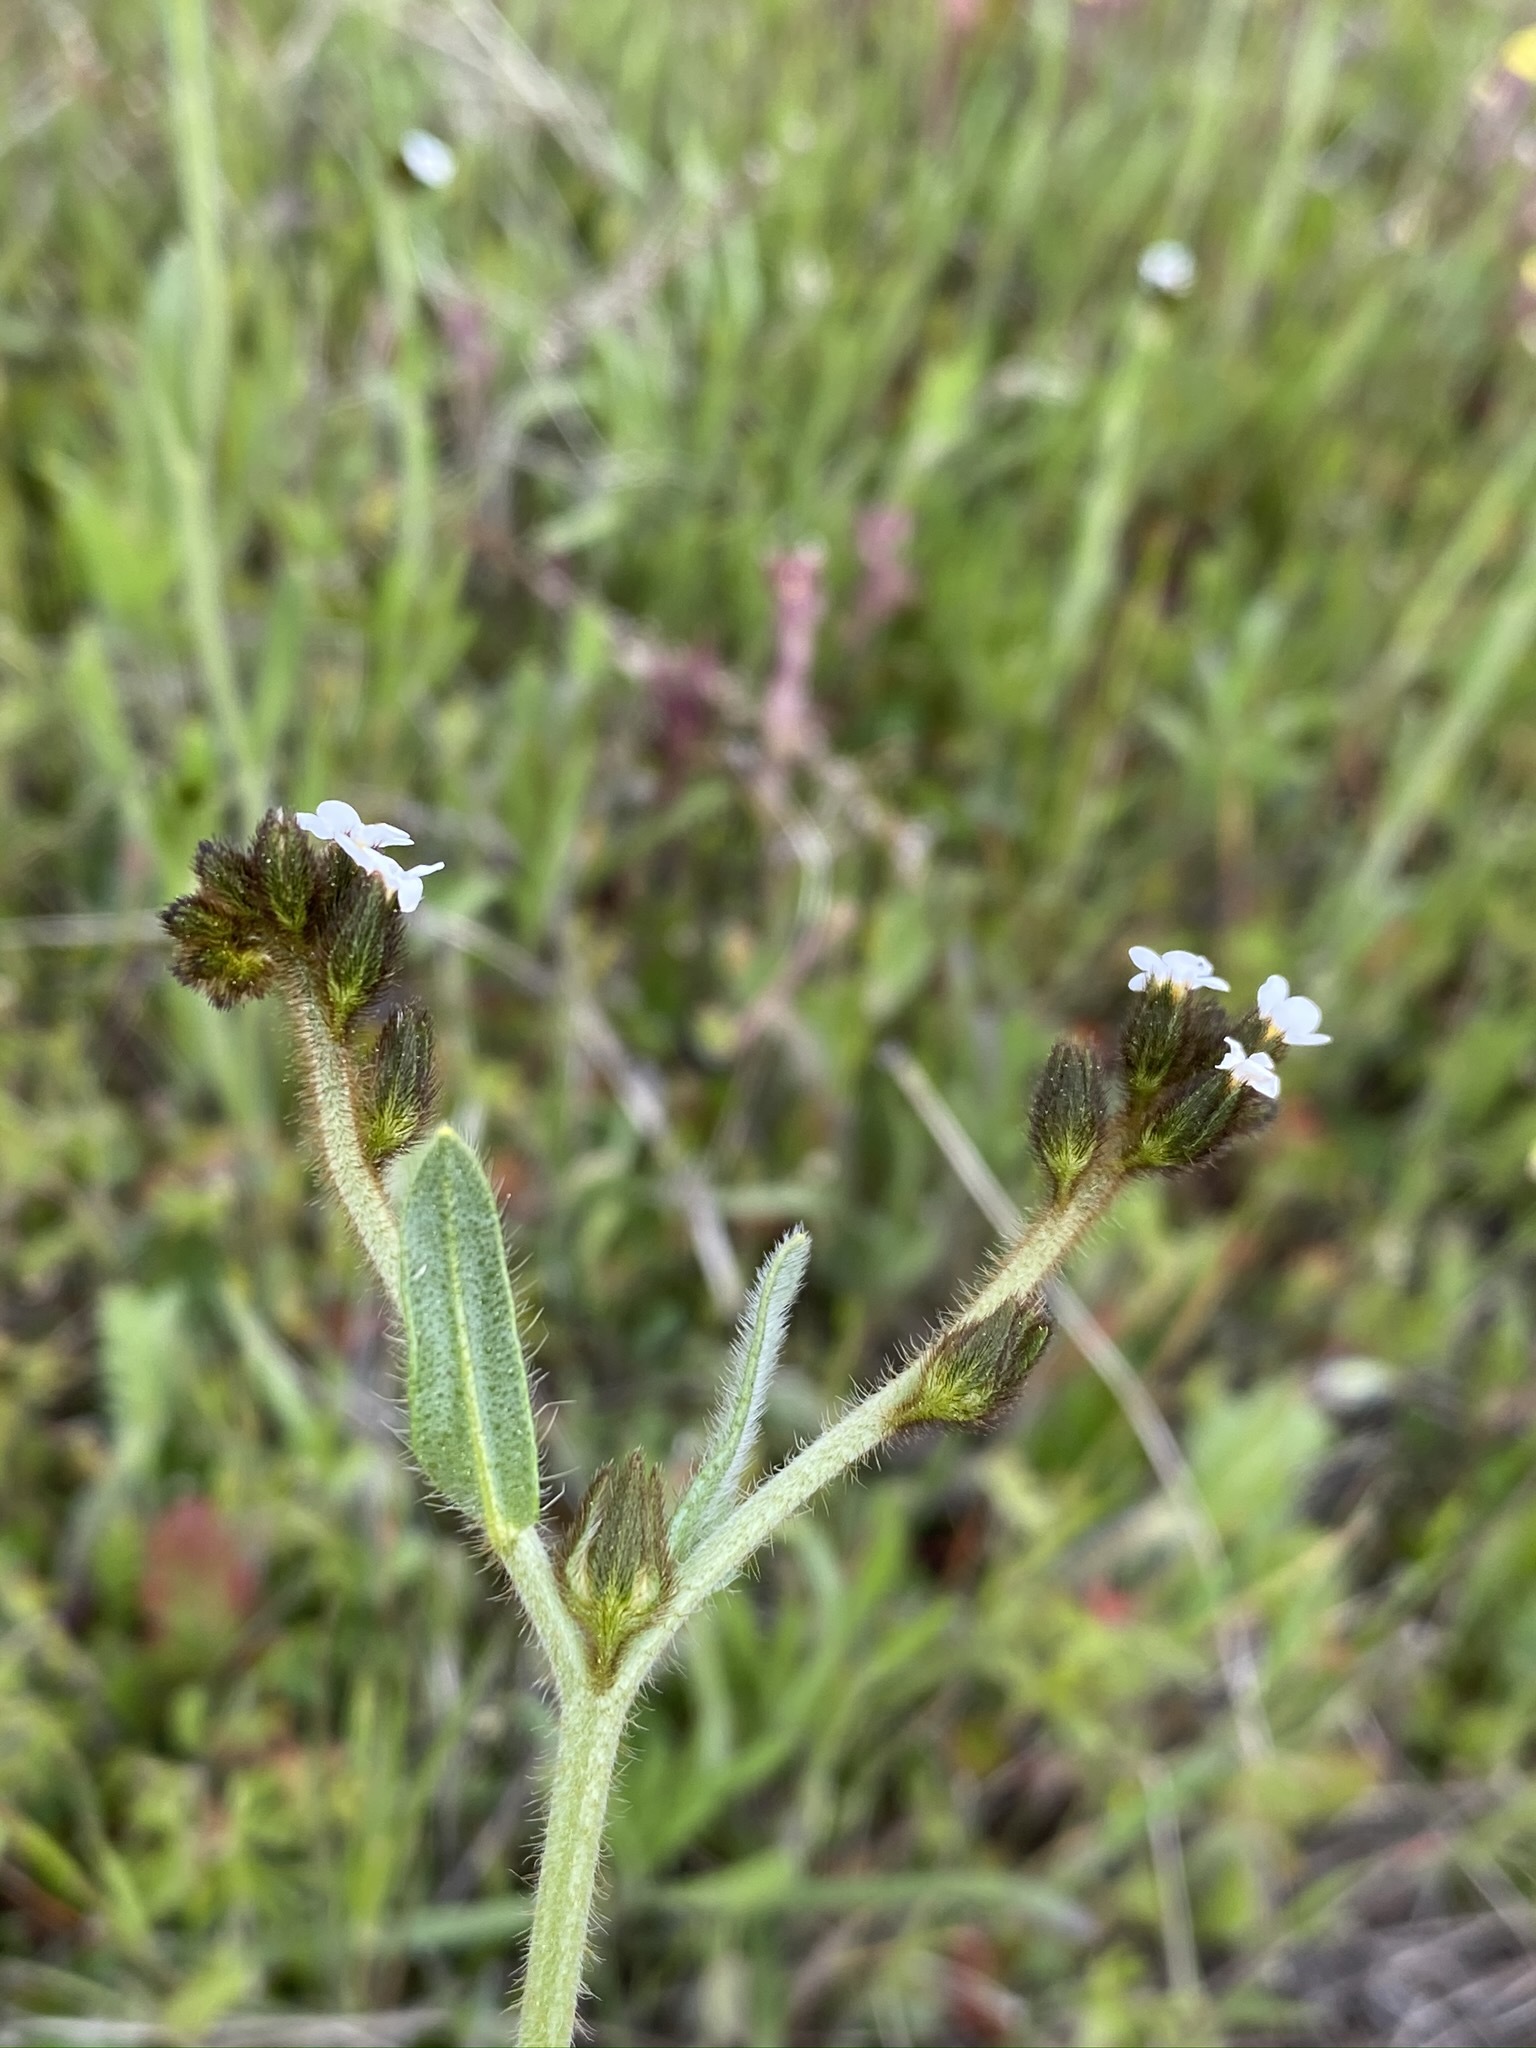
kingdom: Plantae
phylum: Tracheophyta
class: Magnoliopsida
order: Boraginales
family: Boraginaceae
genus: Plagiobothrys
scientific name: Plagiobothrys fulvus
